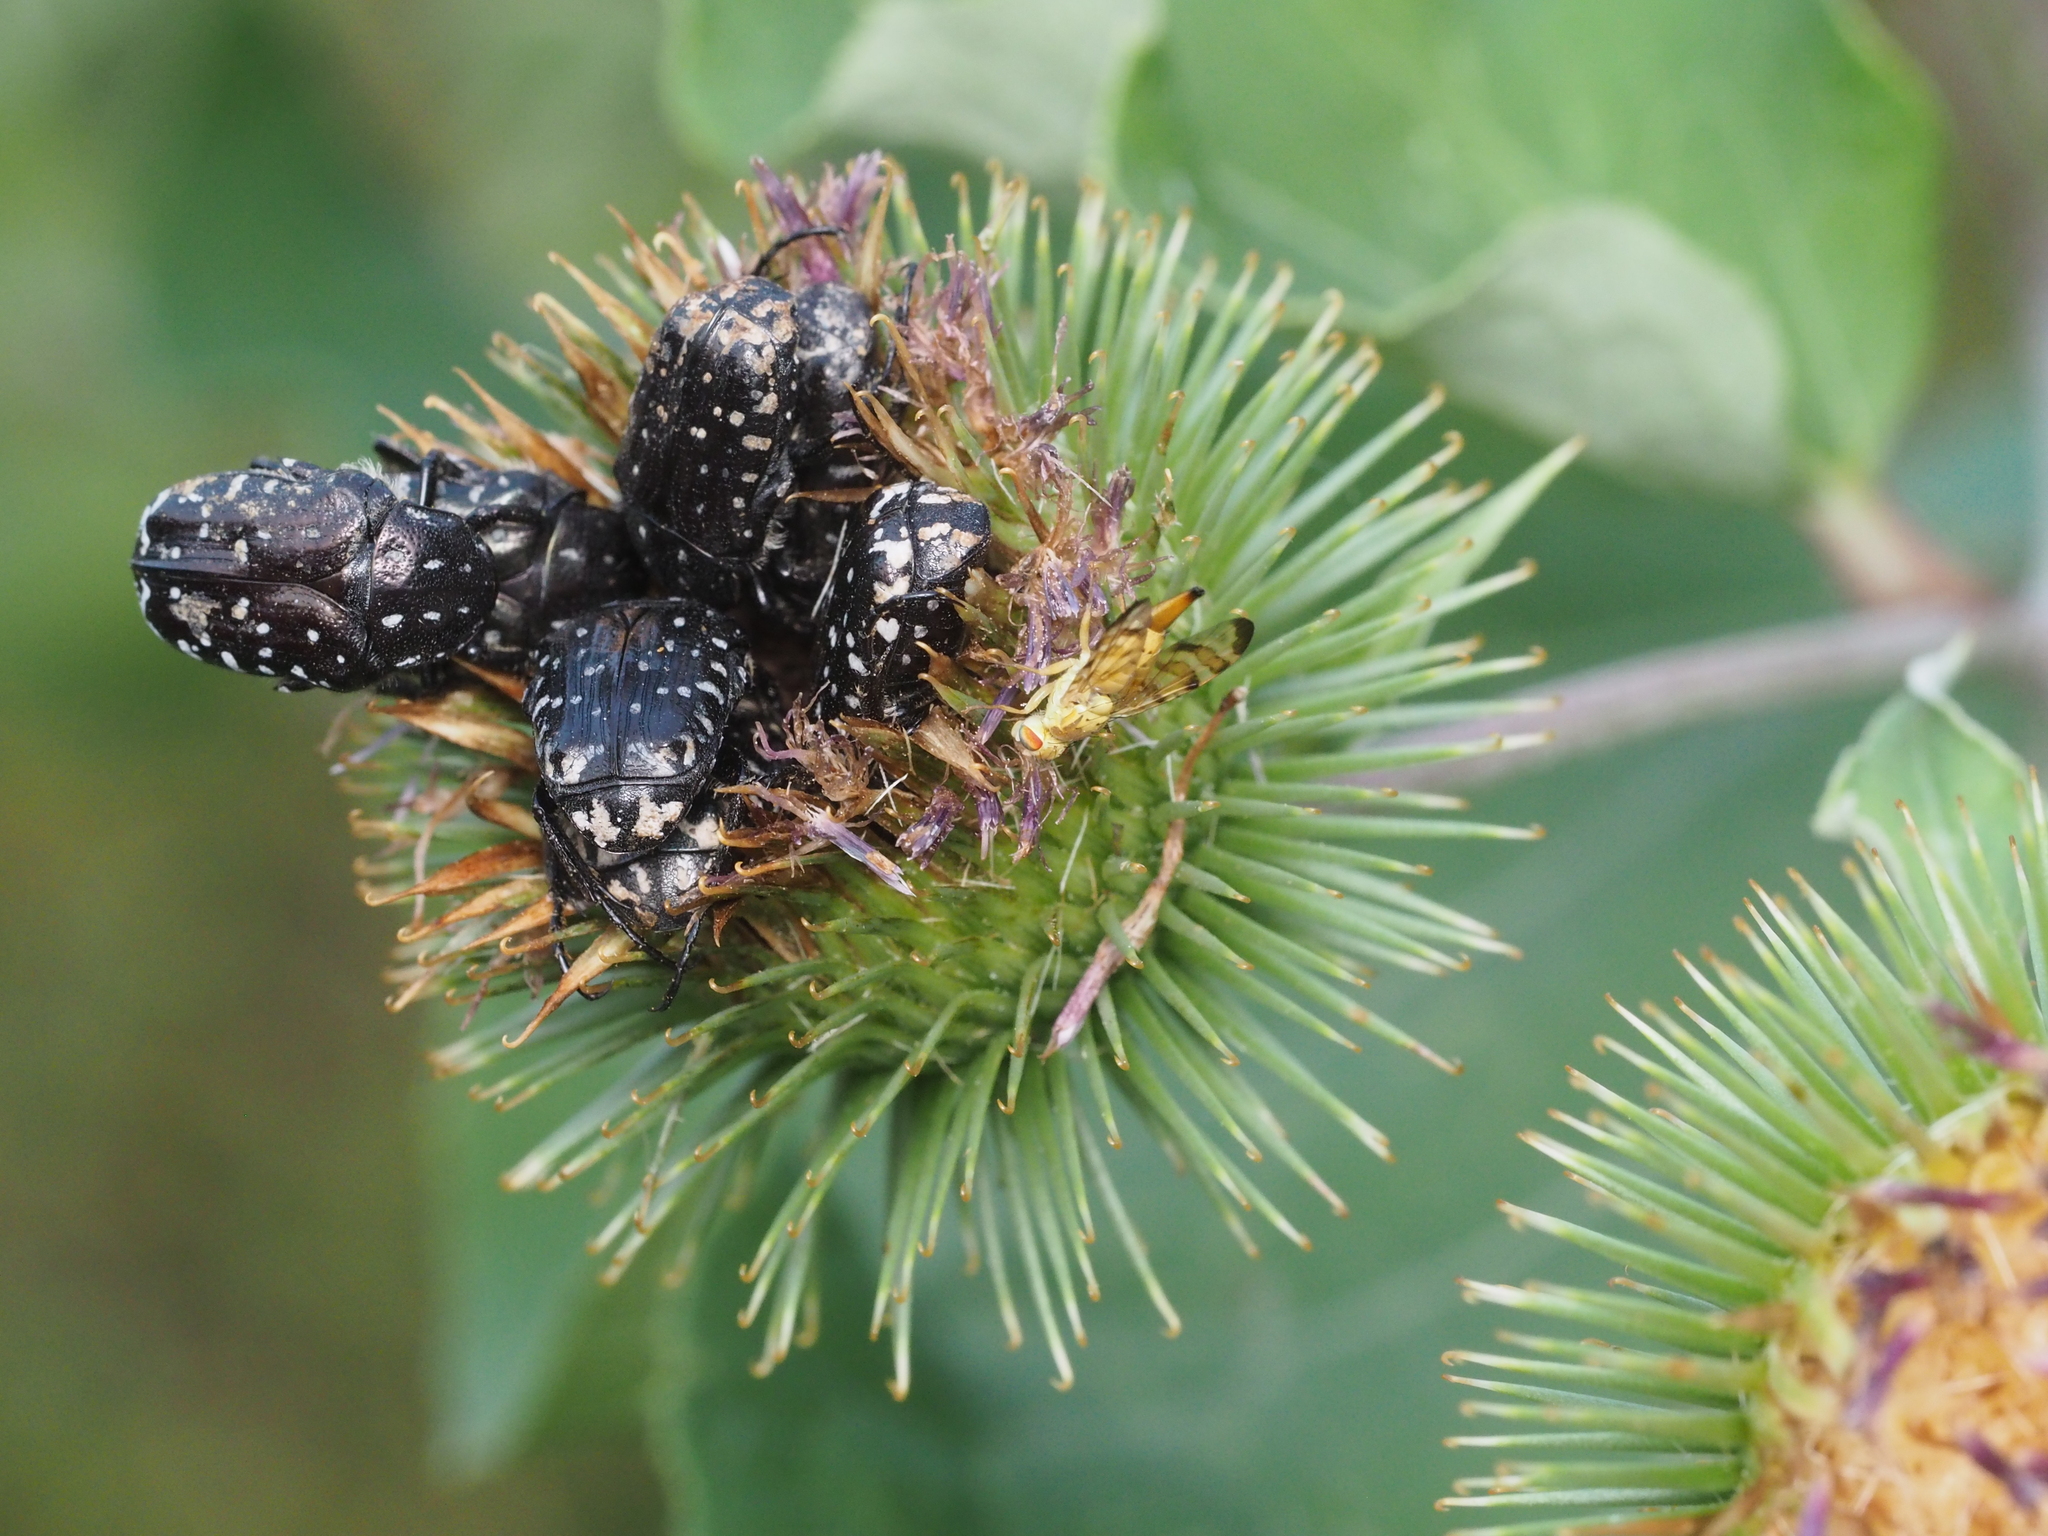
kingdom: Animalia
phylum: Arthropoda
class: Insecta
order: Coleoptera
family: Scarabaeidae
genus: Oxythyrea
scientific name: Oxythyrea funesta
